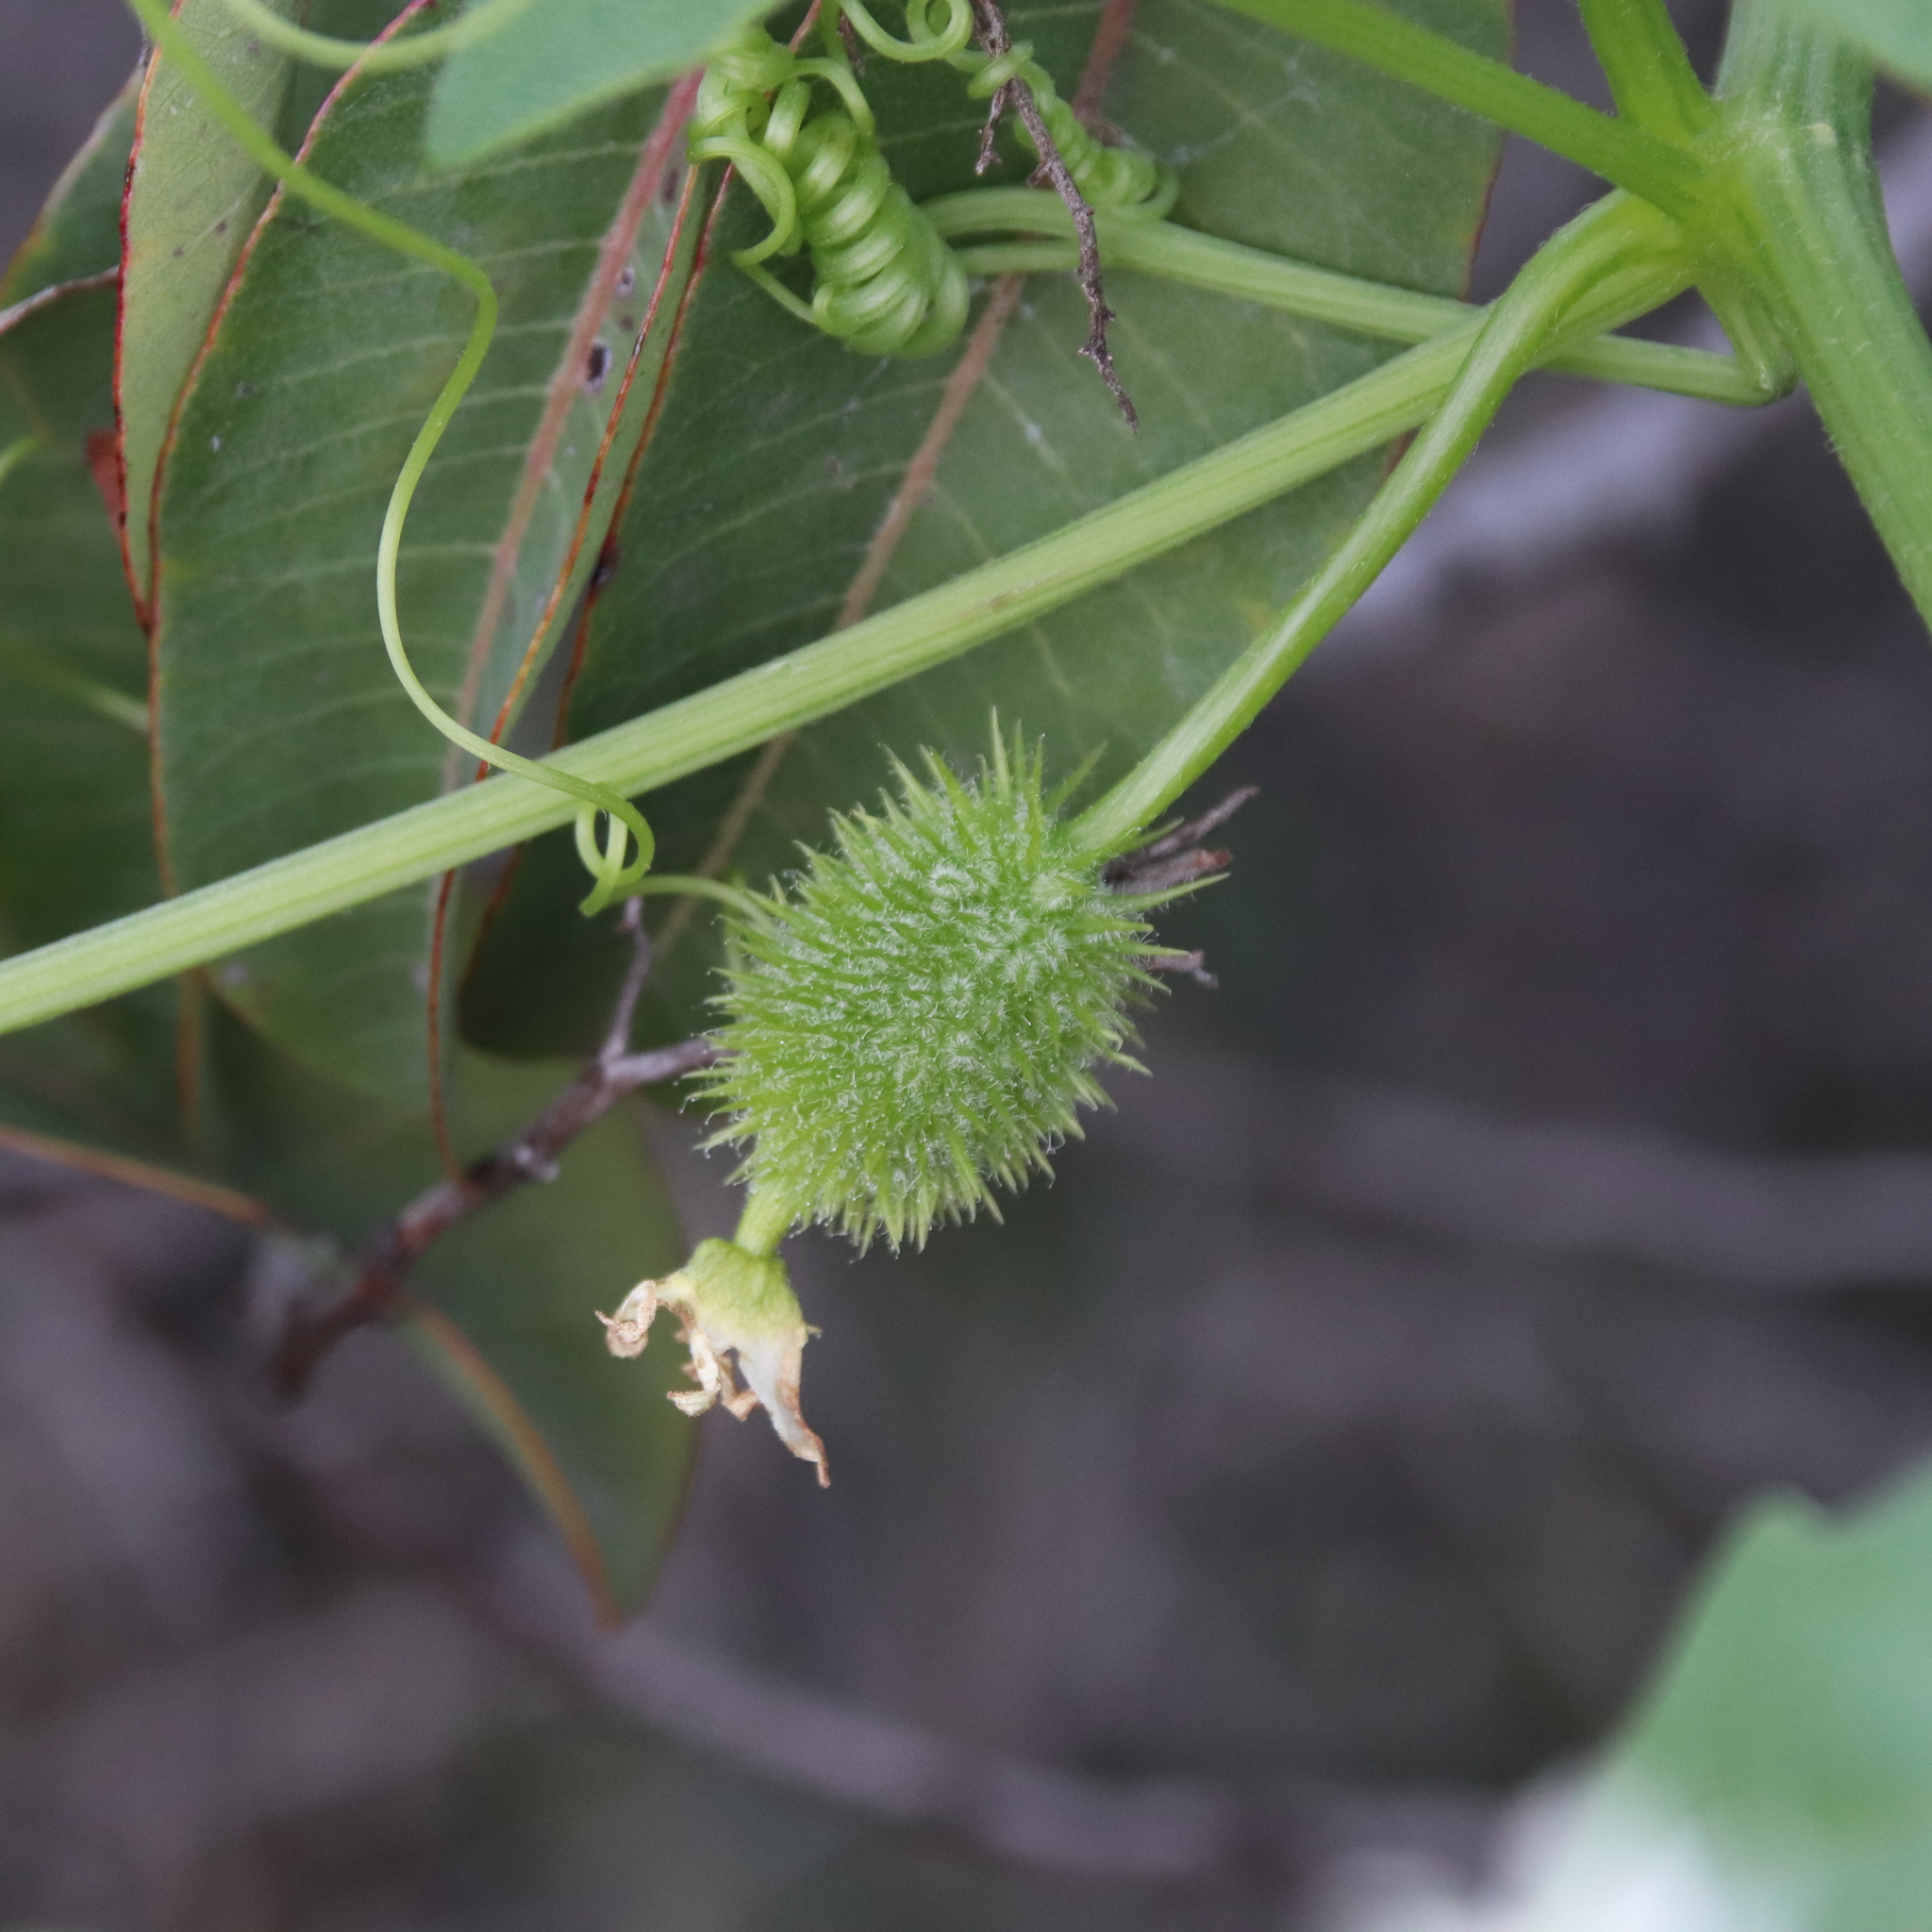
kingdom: Plantae
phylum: Tracheophyta
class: Magnoliopsida
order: Cucurbitales
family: Cucurbitaceae
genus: Marah
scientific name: Marah macrocarpa
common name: Cucamonga manroot
